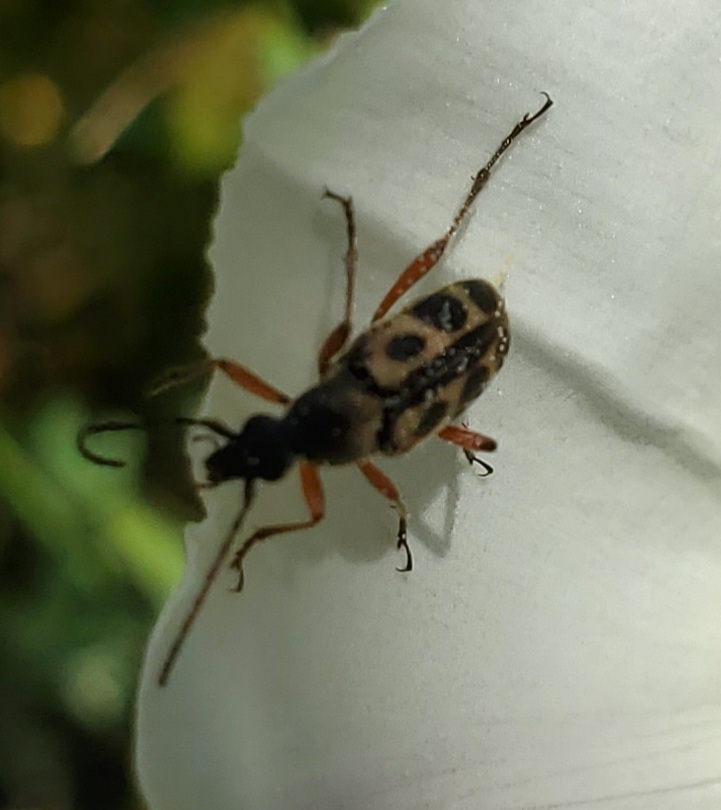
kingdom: Animalia
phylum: Arthropoda
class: Insecta
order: Coleoptera
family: Cerambycidae
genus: Judolia
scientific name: Judolia sexspilota
